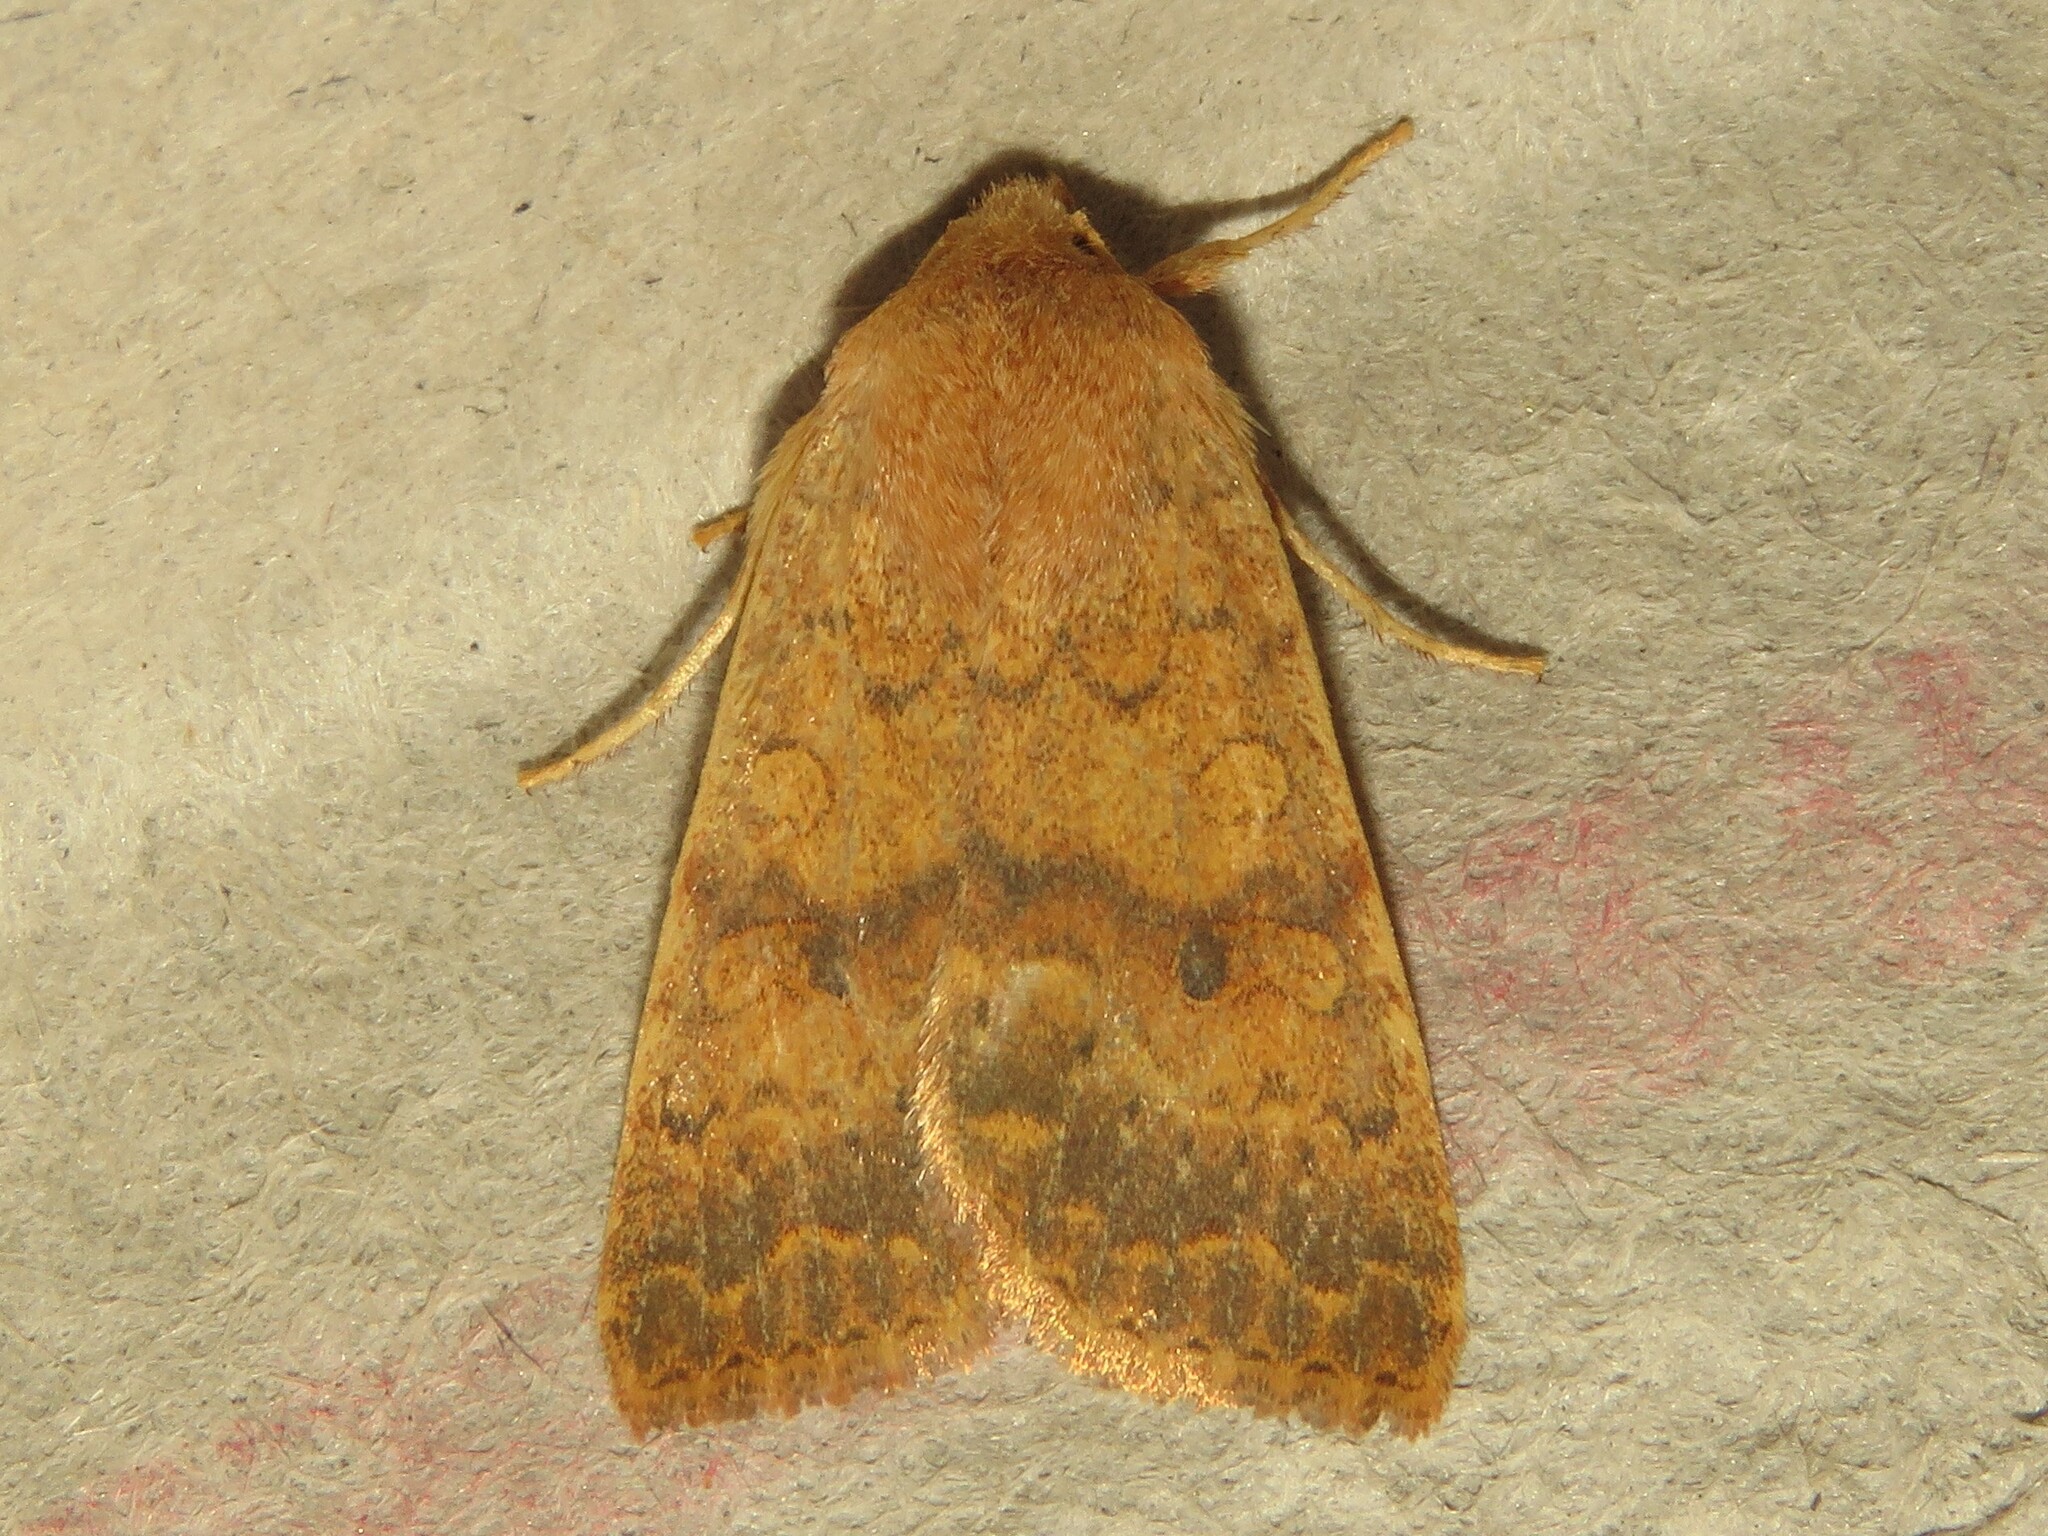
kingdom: Animalia
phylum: Arthropoda
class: Insecta
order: Lepidoptera
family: Noctuidae
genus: Agrochola
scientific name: Agrochola bicolorago
